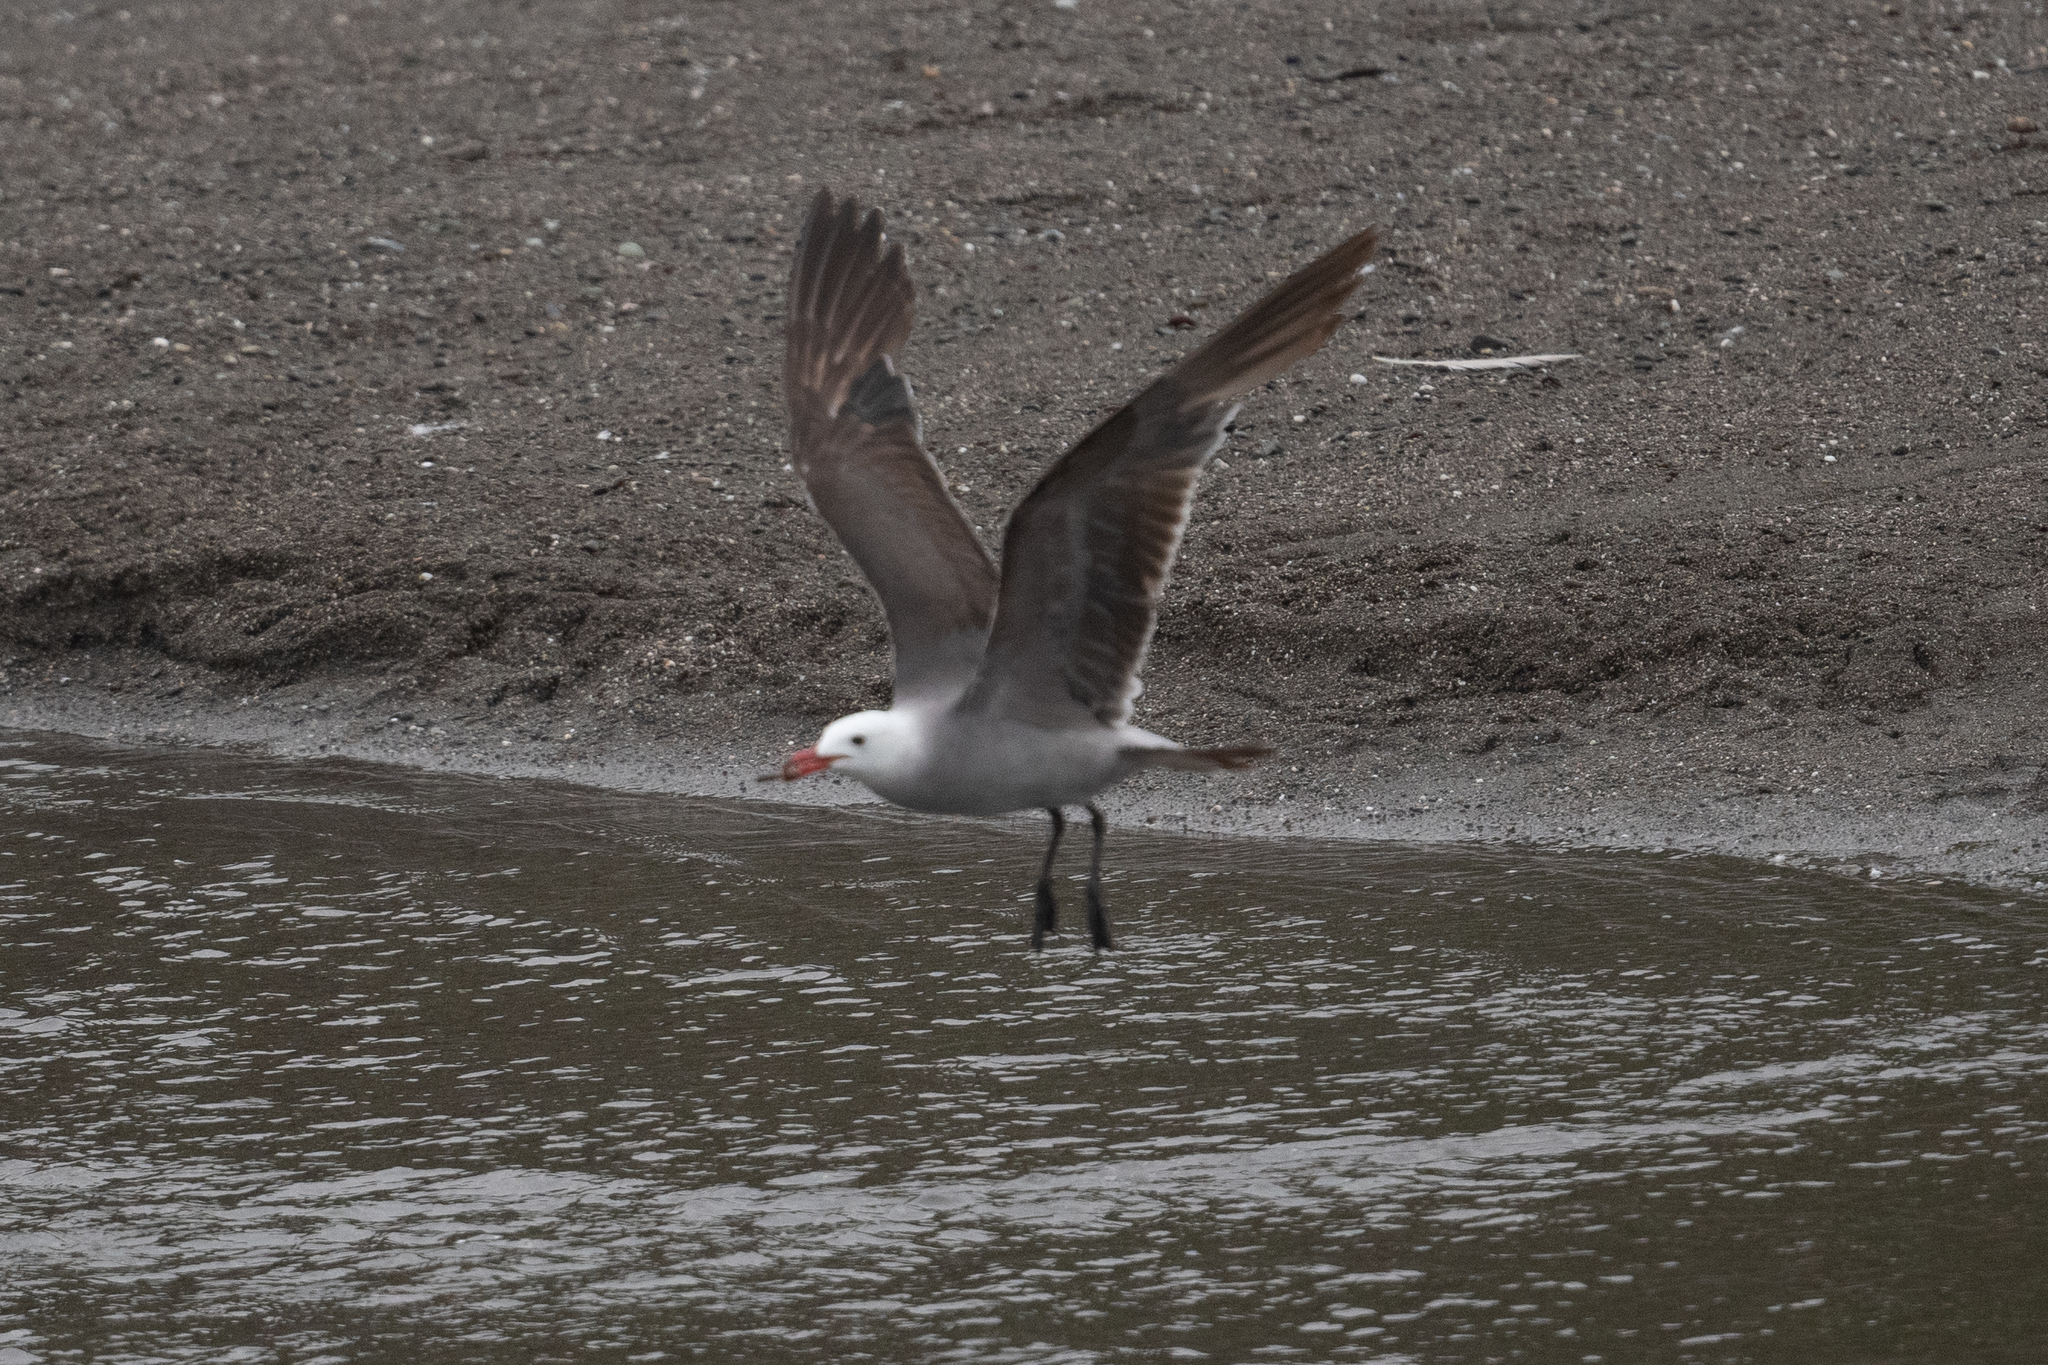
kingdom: Animalia
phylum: Chordata
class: Aves
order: Charadriiformes
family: Laridae
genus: Larus
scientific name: Larus heermanni
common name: Heermann's gull
